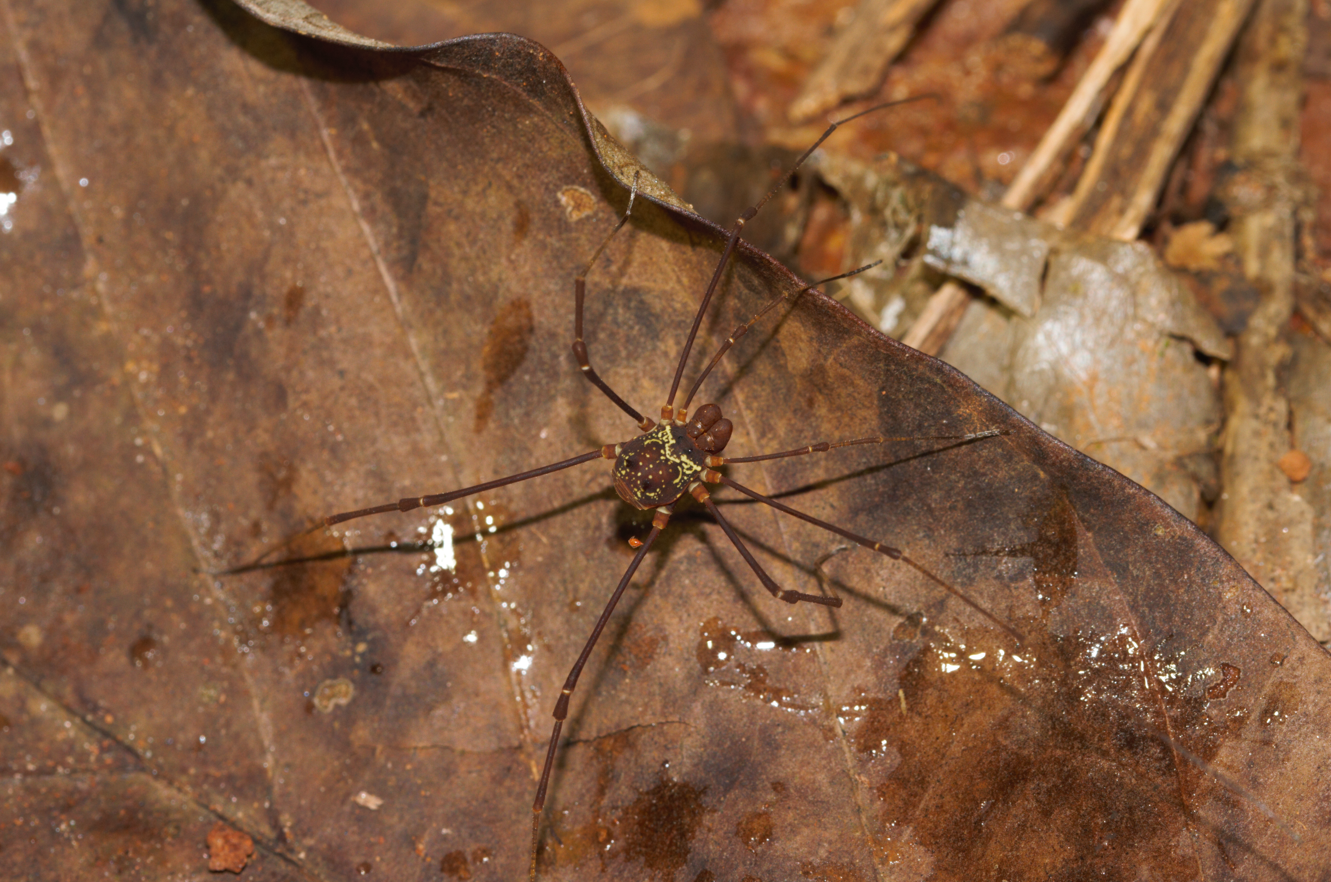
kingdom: Animalia
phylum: Arthropoda
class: Arachnida
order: Opiliones
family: Cosmetidae
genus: Paecilaema
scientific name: Paecilaema c-insignitum
